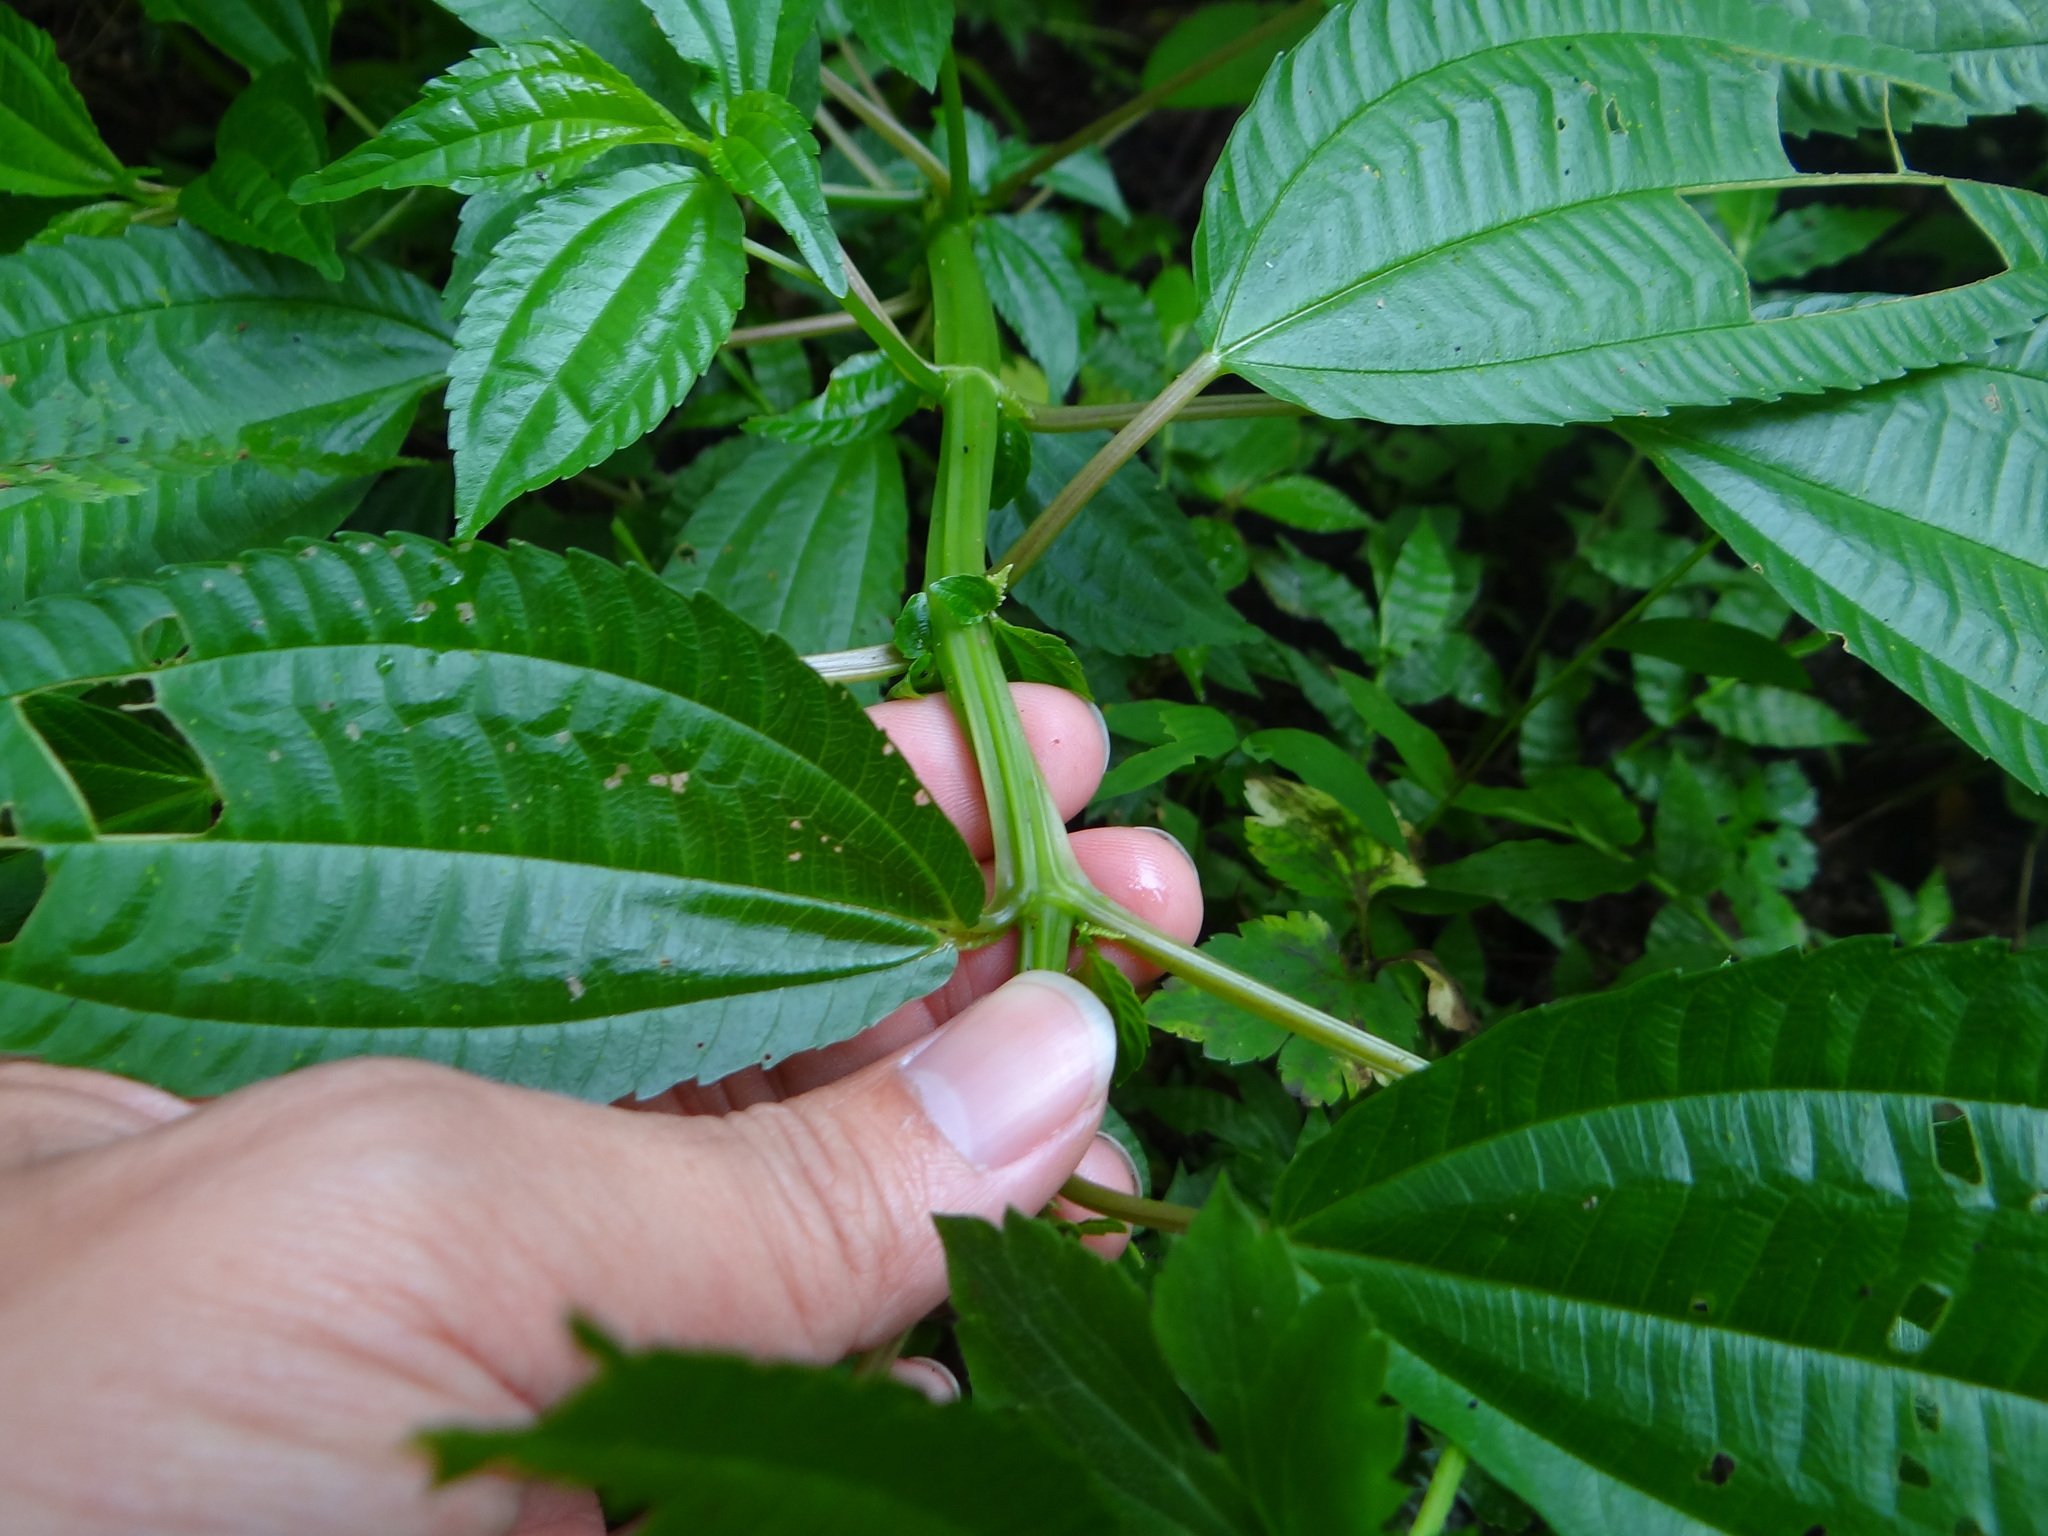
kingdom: Plantae
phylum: Tracheophyta
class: Magnoliopsida
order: Rosales
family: Urticaceae
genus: Pilea
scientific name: Pilea melastomoides
